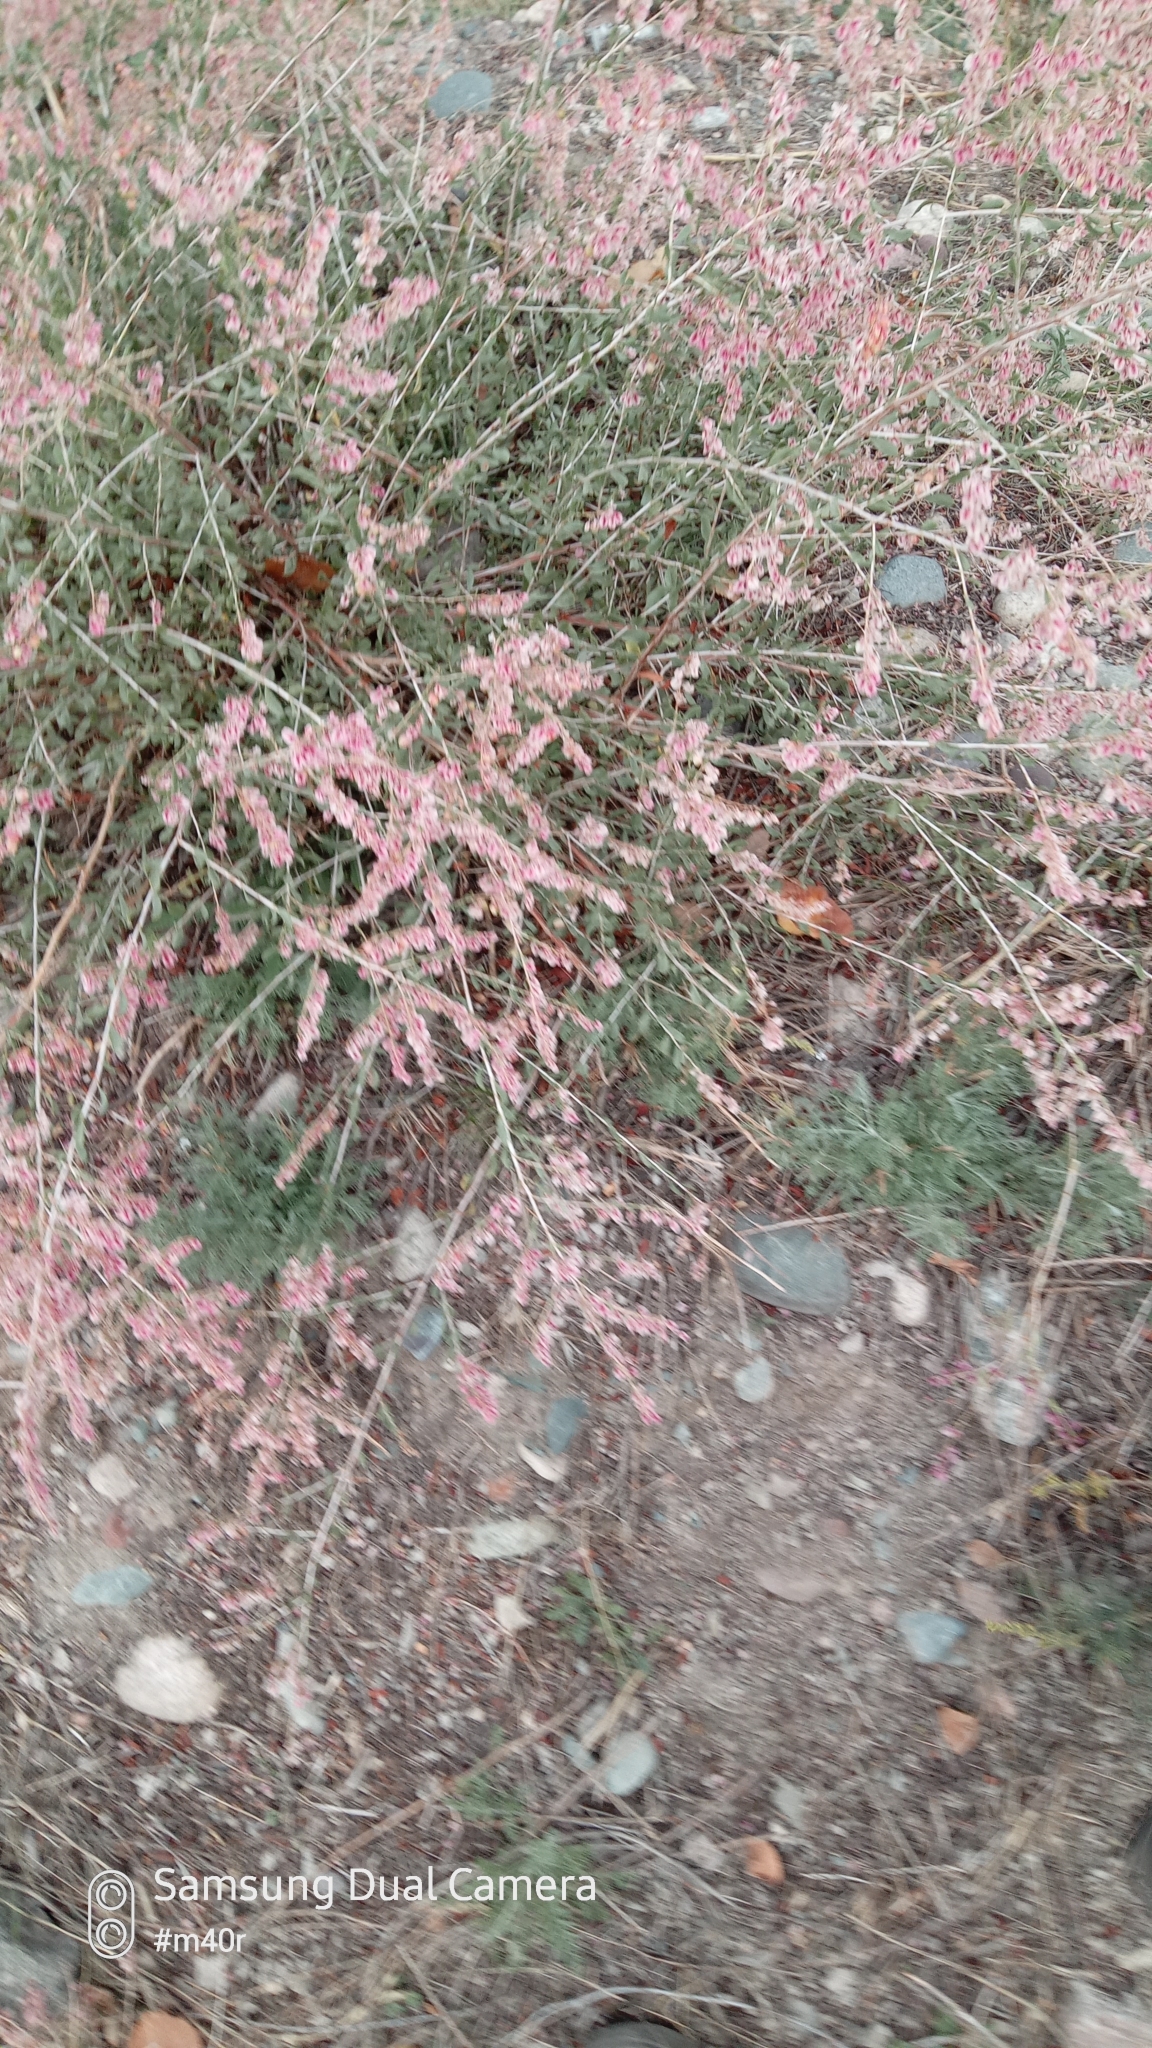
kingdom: Plantae
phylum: Tracheophyta
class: Magnoliopsida
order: Caryophyllales
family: Polygonaceae
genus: Atraphaxis
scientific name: Atraphaxis frutescens
